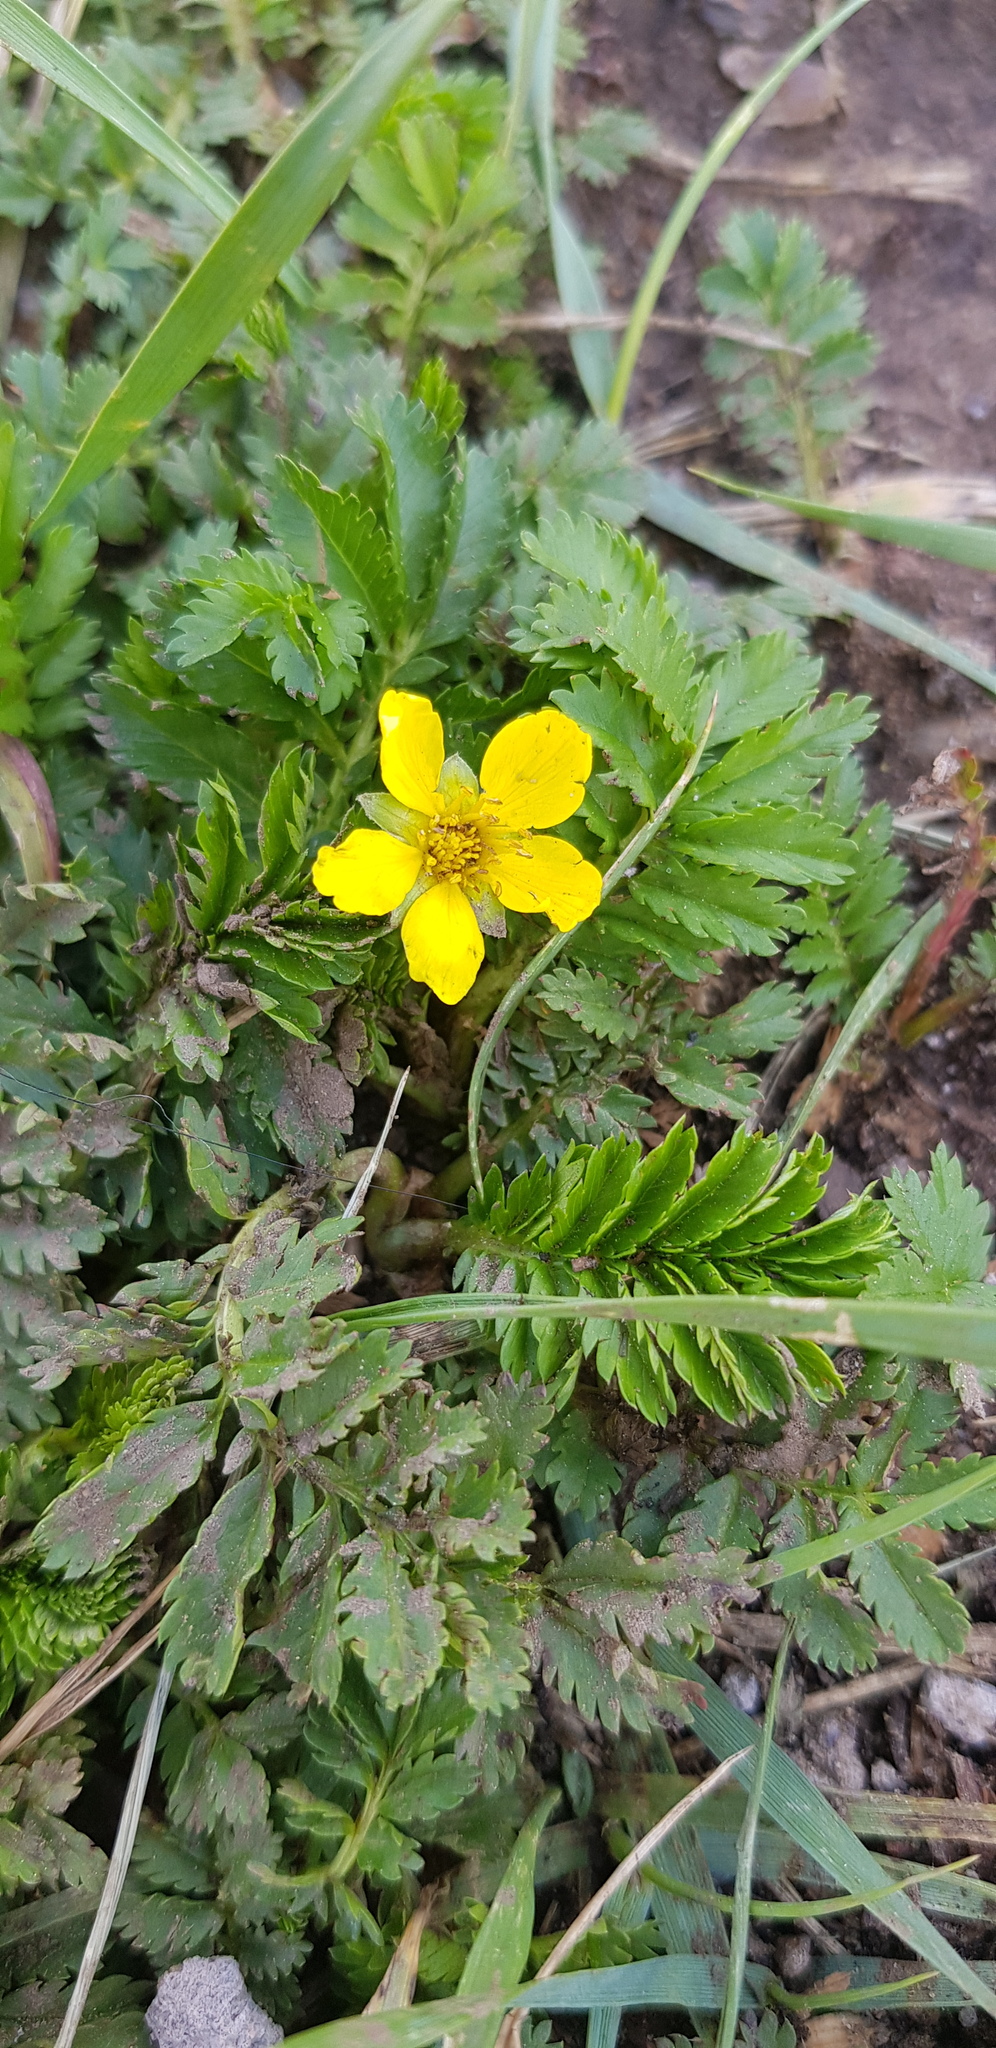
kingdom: Plantae
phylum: Tracheophyta
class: Magnoliopsida
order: Rosales
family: Rosaceae
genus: Argentina
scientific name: Argentina anserina
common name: Common silverweed
